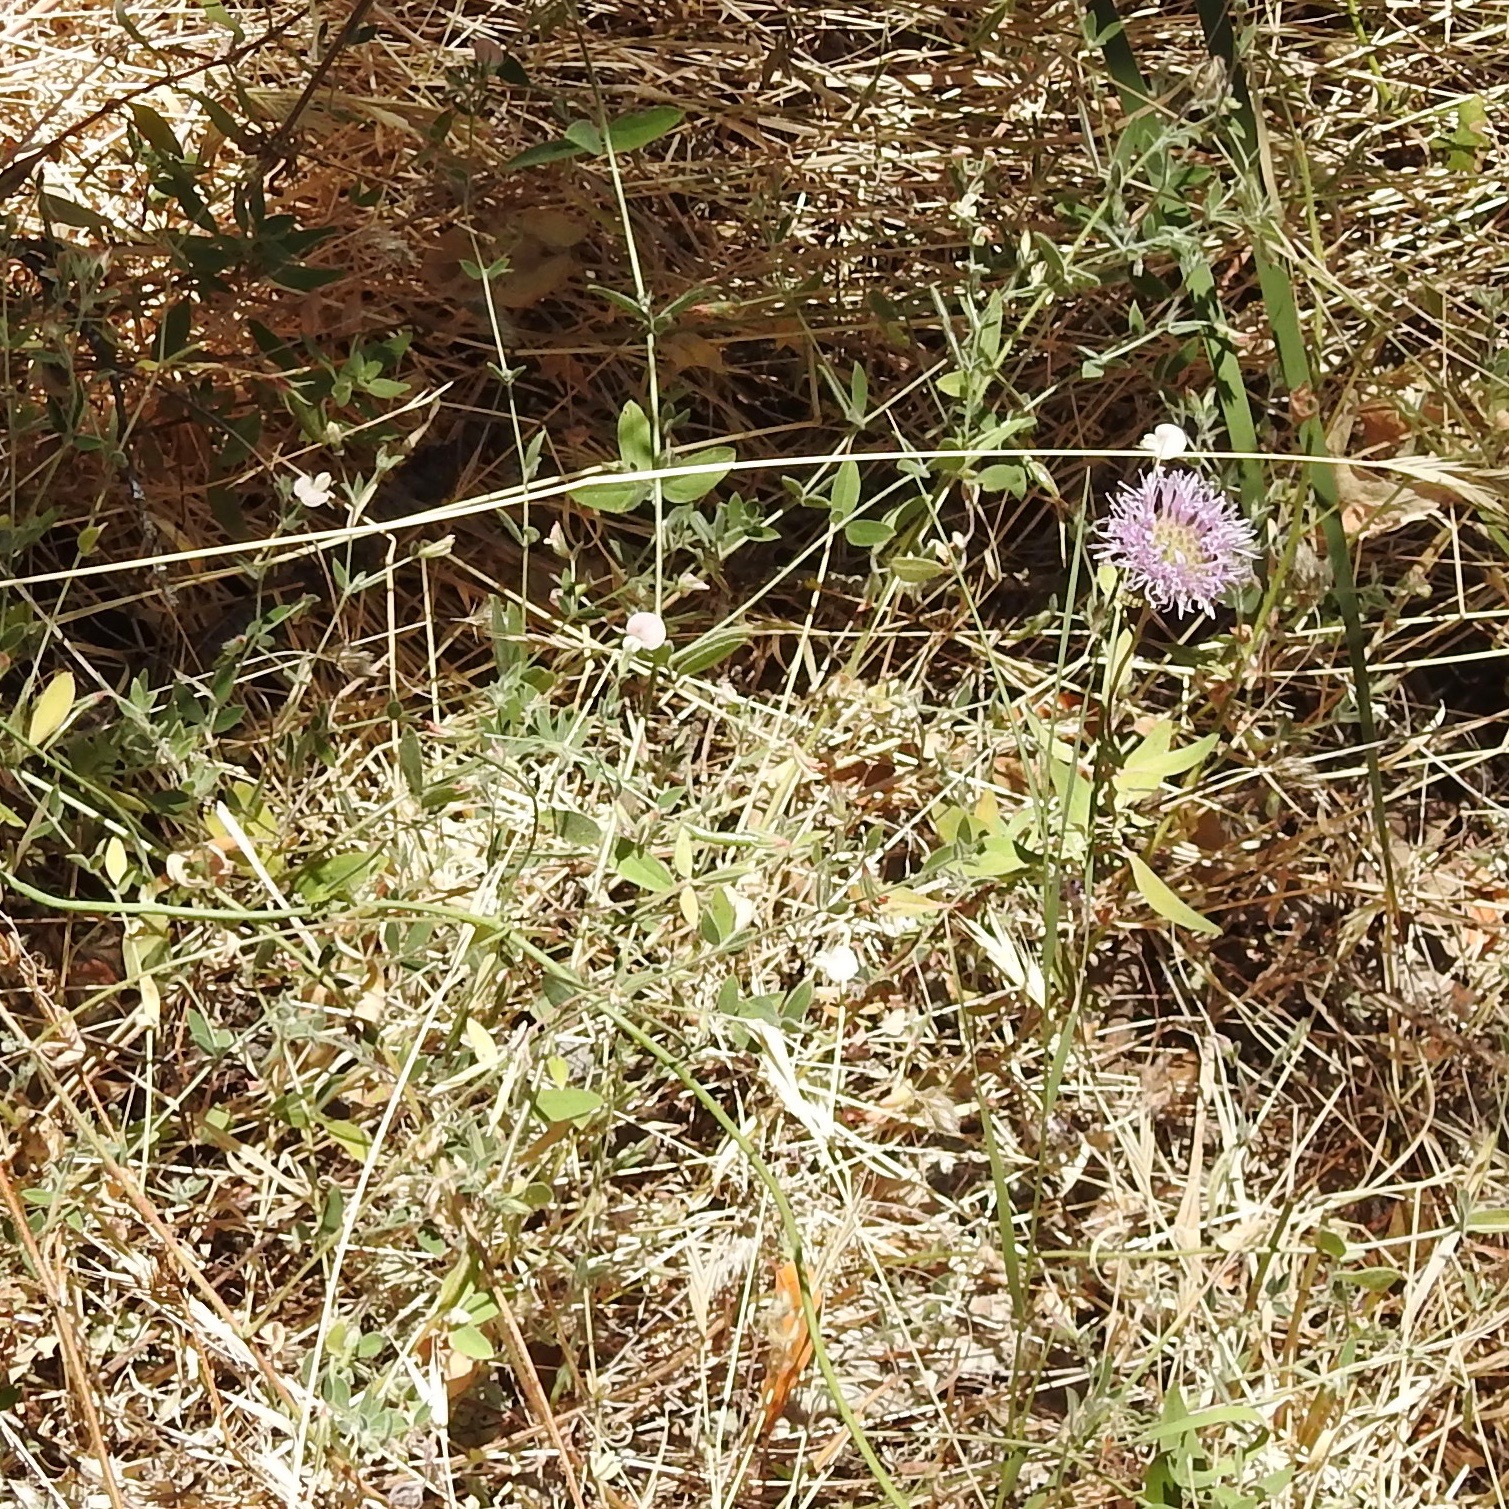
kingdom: Plantae
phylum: Tracheophyta
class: Magnoliopsida
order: Lamiales
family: Lamiaceae
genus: Monardella
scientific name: Monardella odoratissima
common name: Pacific monardella
